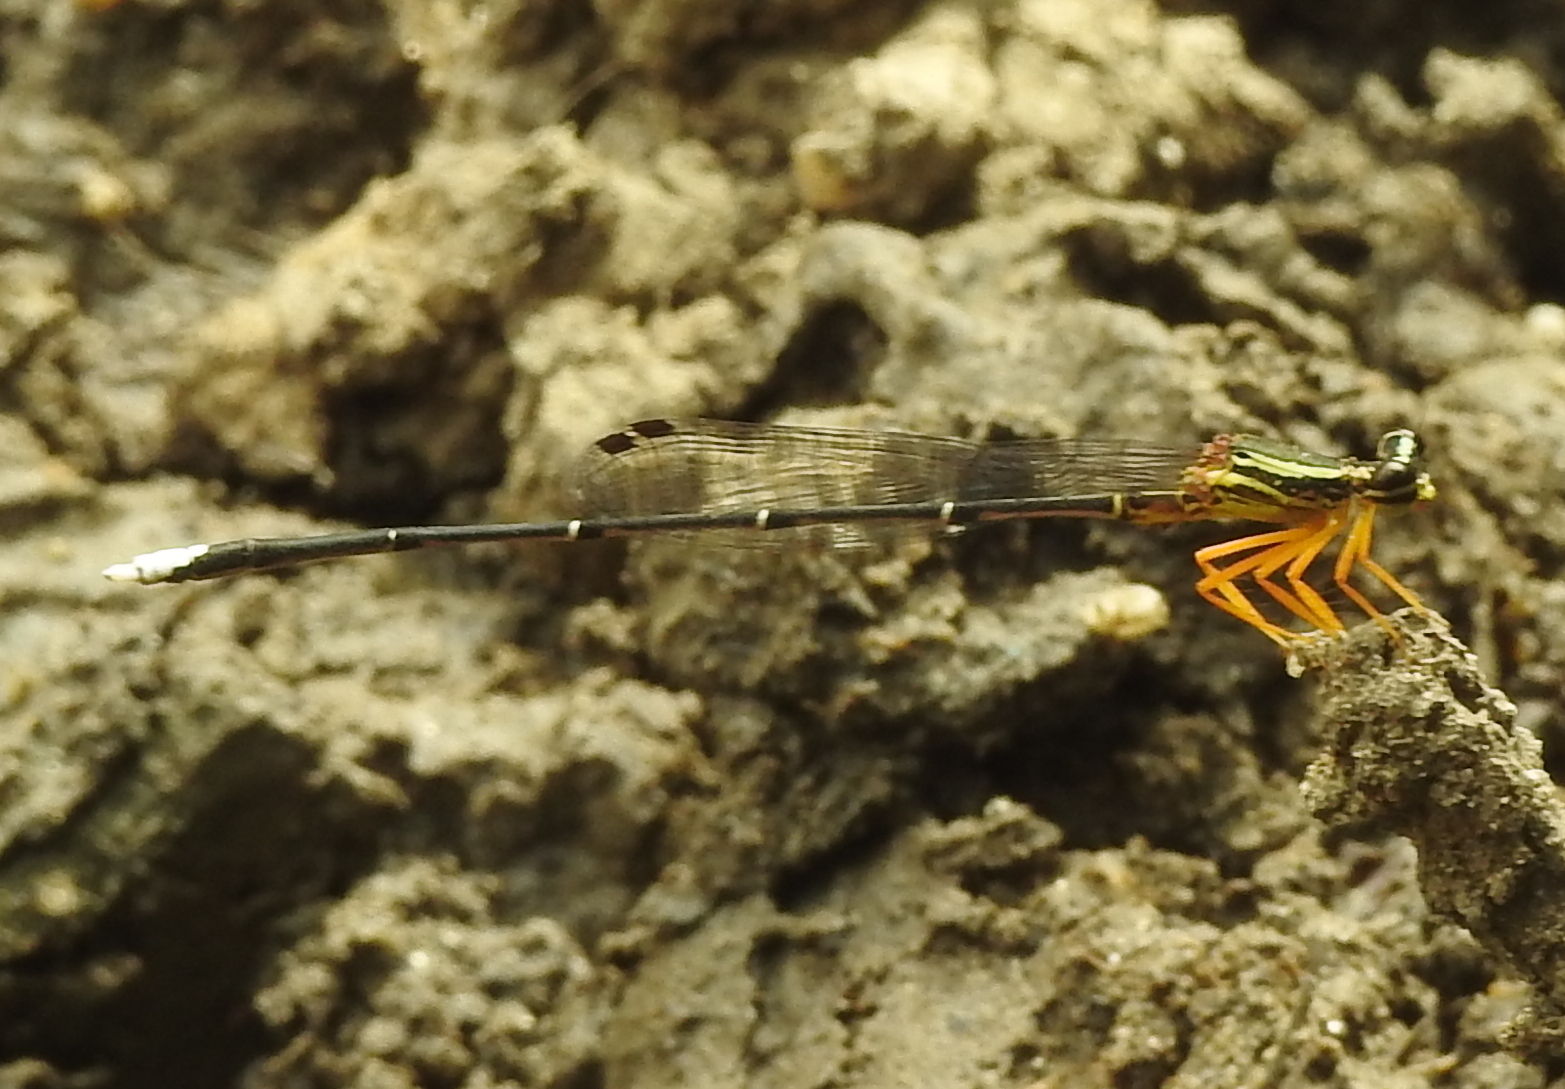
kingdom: Animalia
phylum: Arthropoda
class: Insecta
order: Odonata
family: Platycnemididae
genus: Copera
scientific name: Copera marginipes
